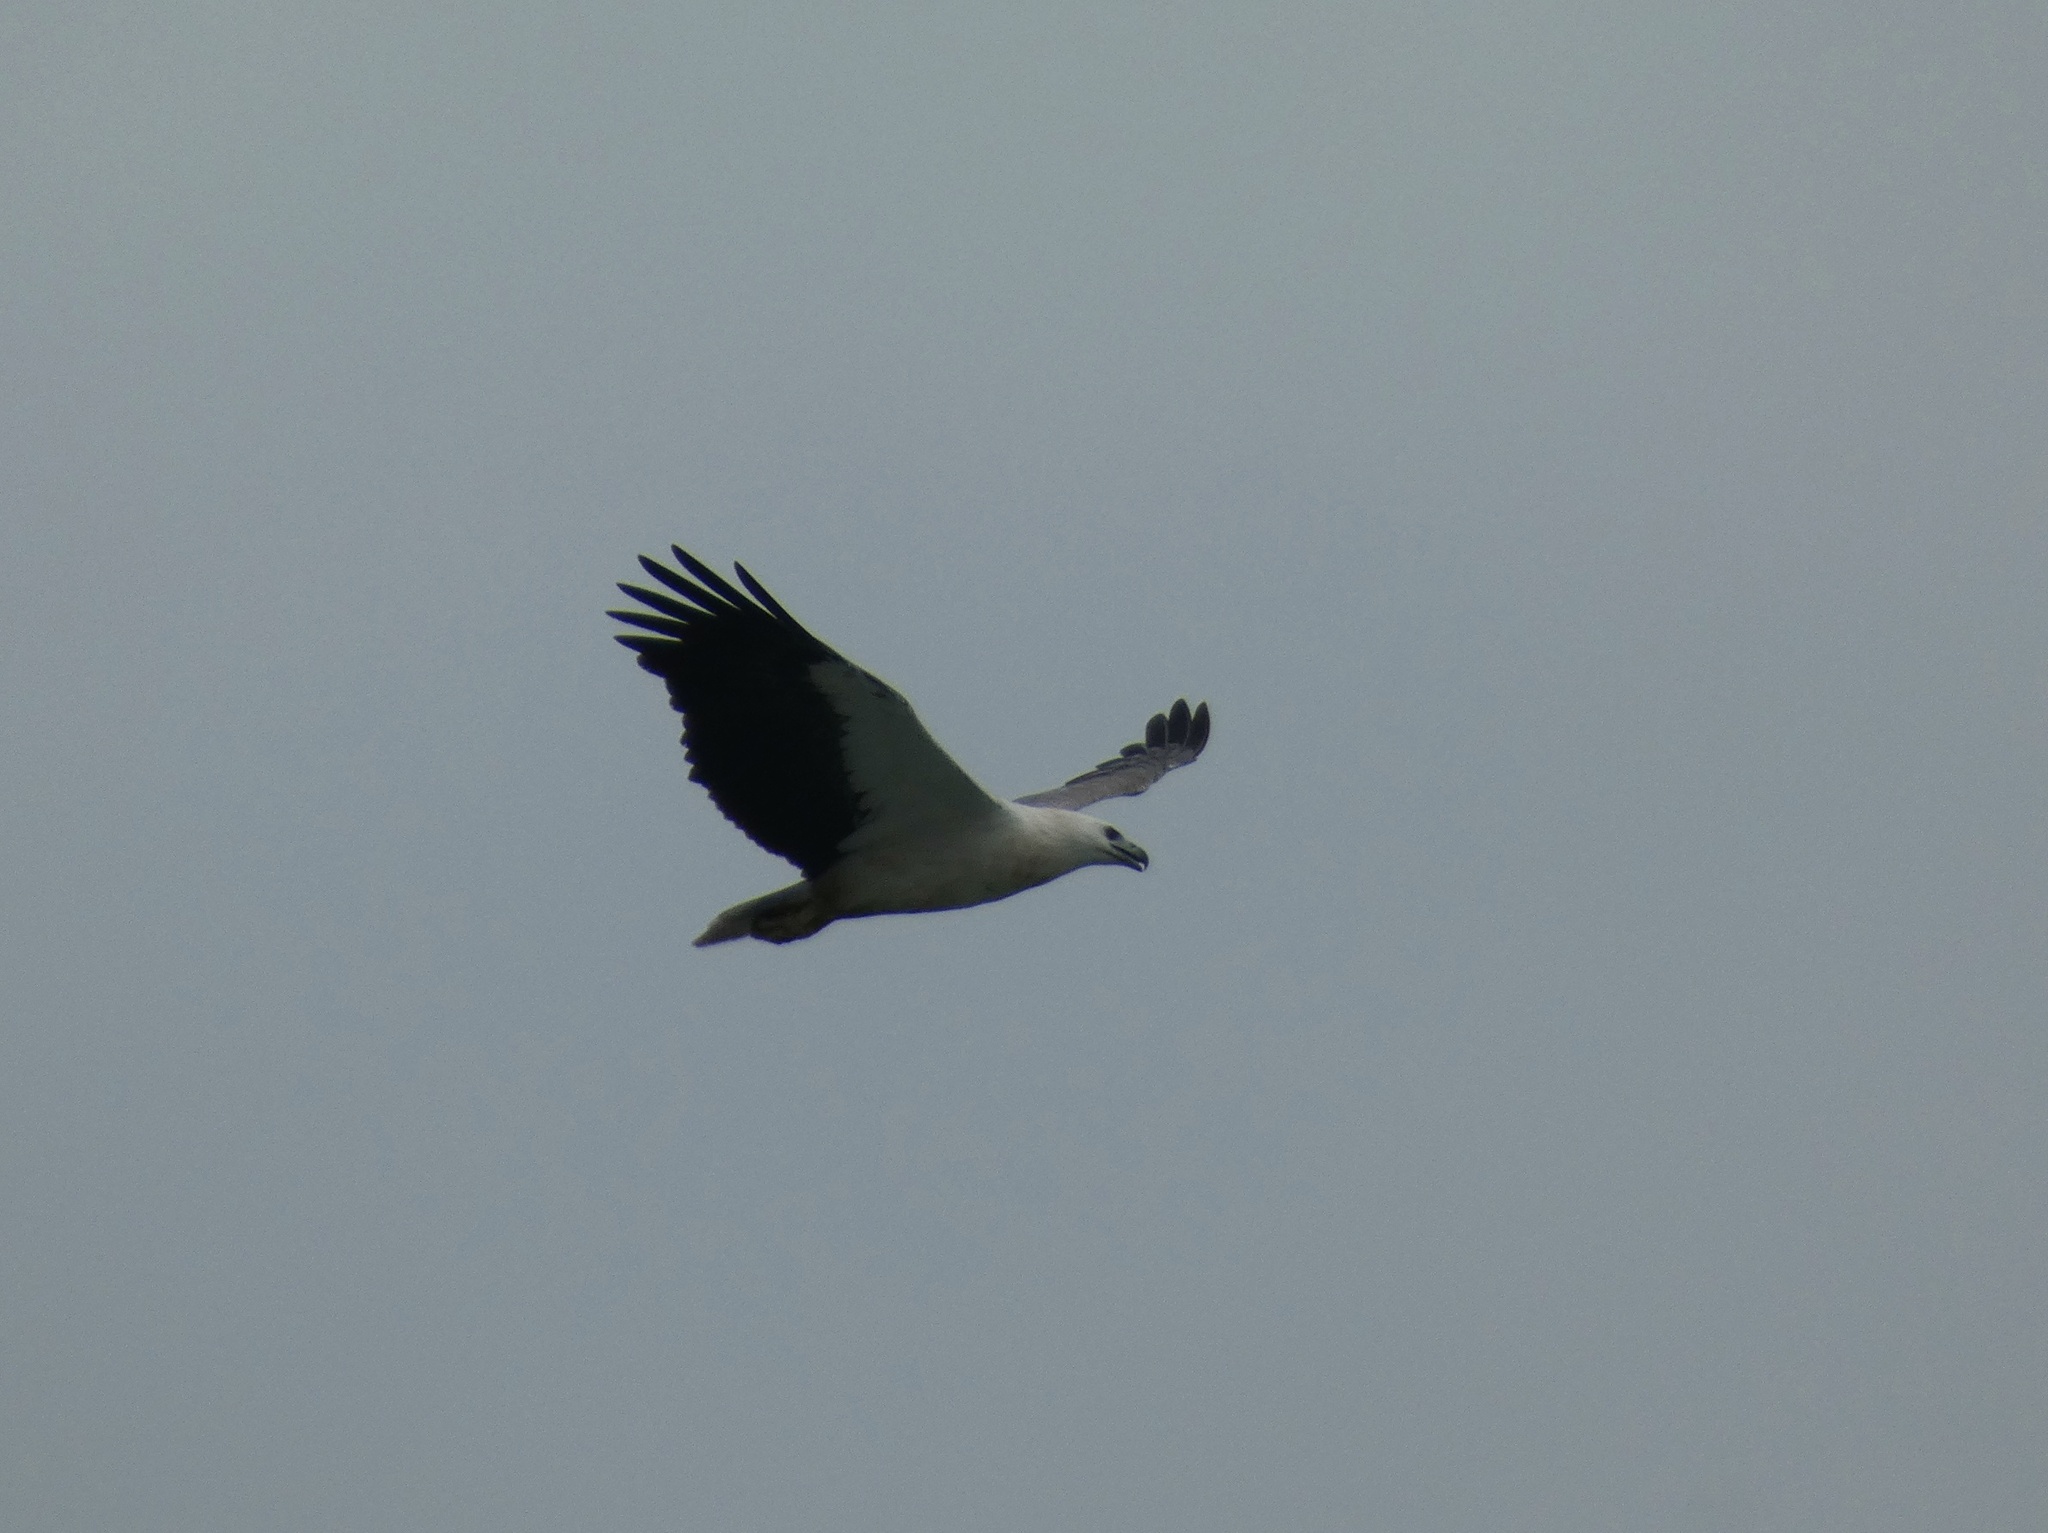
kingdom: Animalia
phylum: Chordata
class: Aves
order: Accipitriformes
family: Accipitridae
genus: Haliaeetus
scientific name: Haliaeetus leucogaster
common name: White-bellied sea eagle
